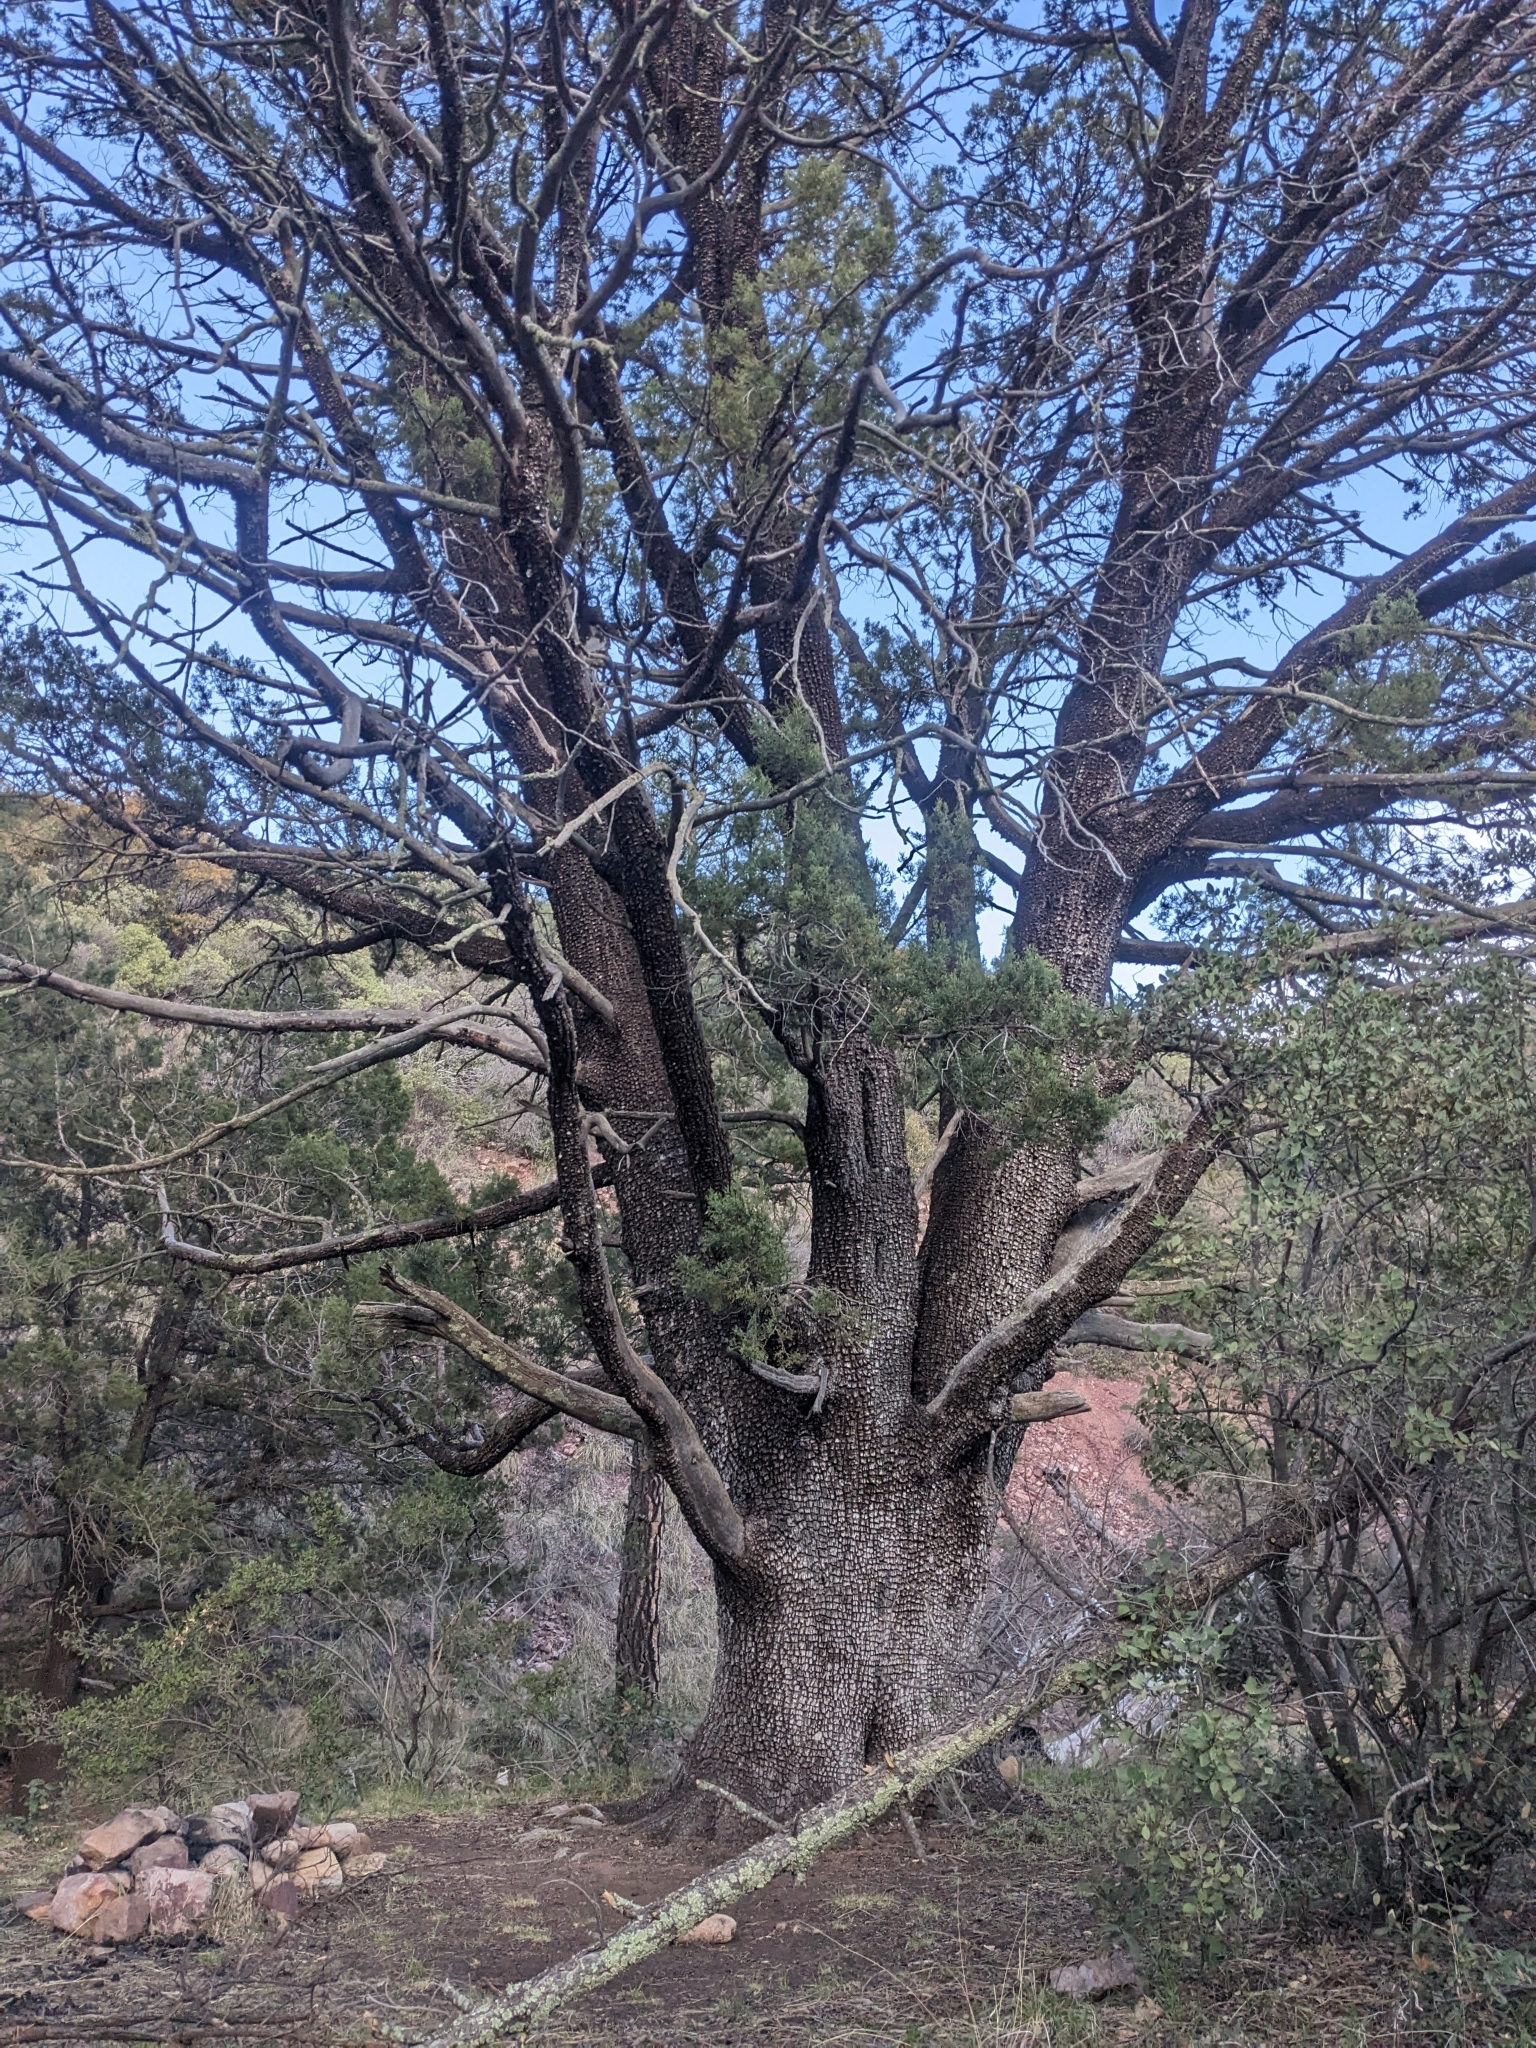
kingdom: Plantae
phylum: Tracheophyta
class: Pinopsida
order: Pinales
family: Cupressaceae
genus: Juniperus
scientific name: Juniperus deppeana
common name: Alligator juniper
